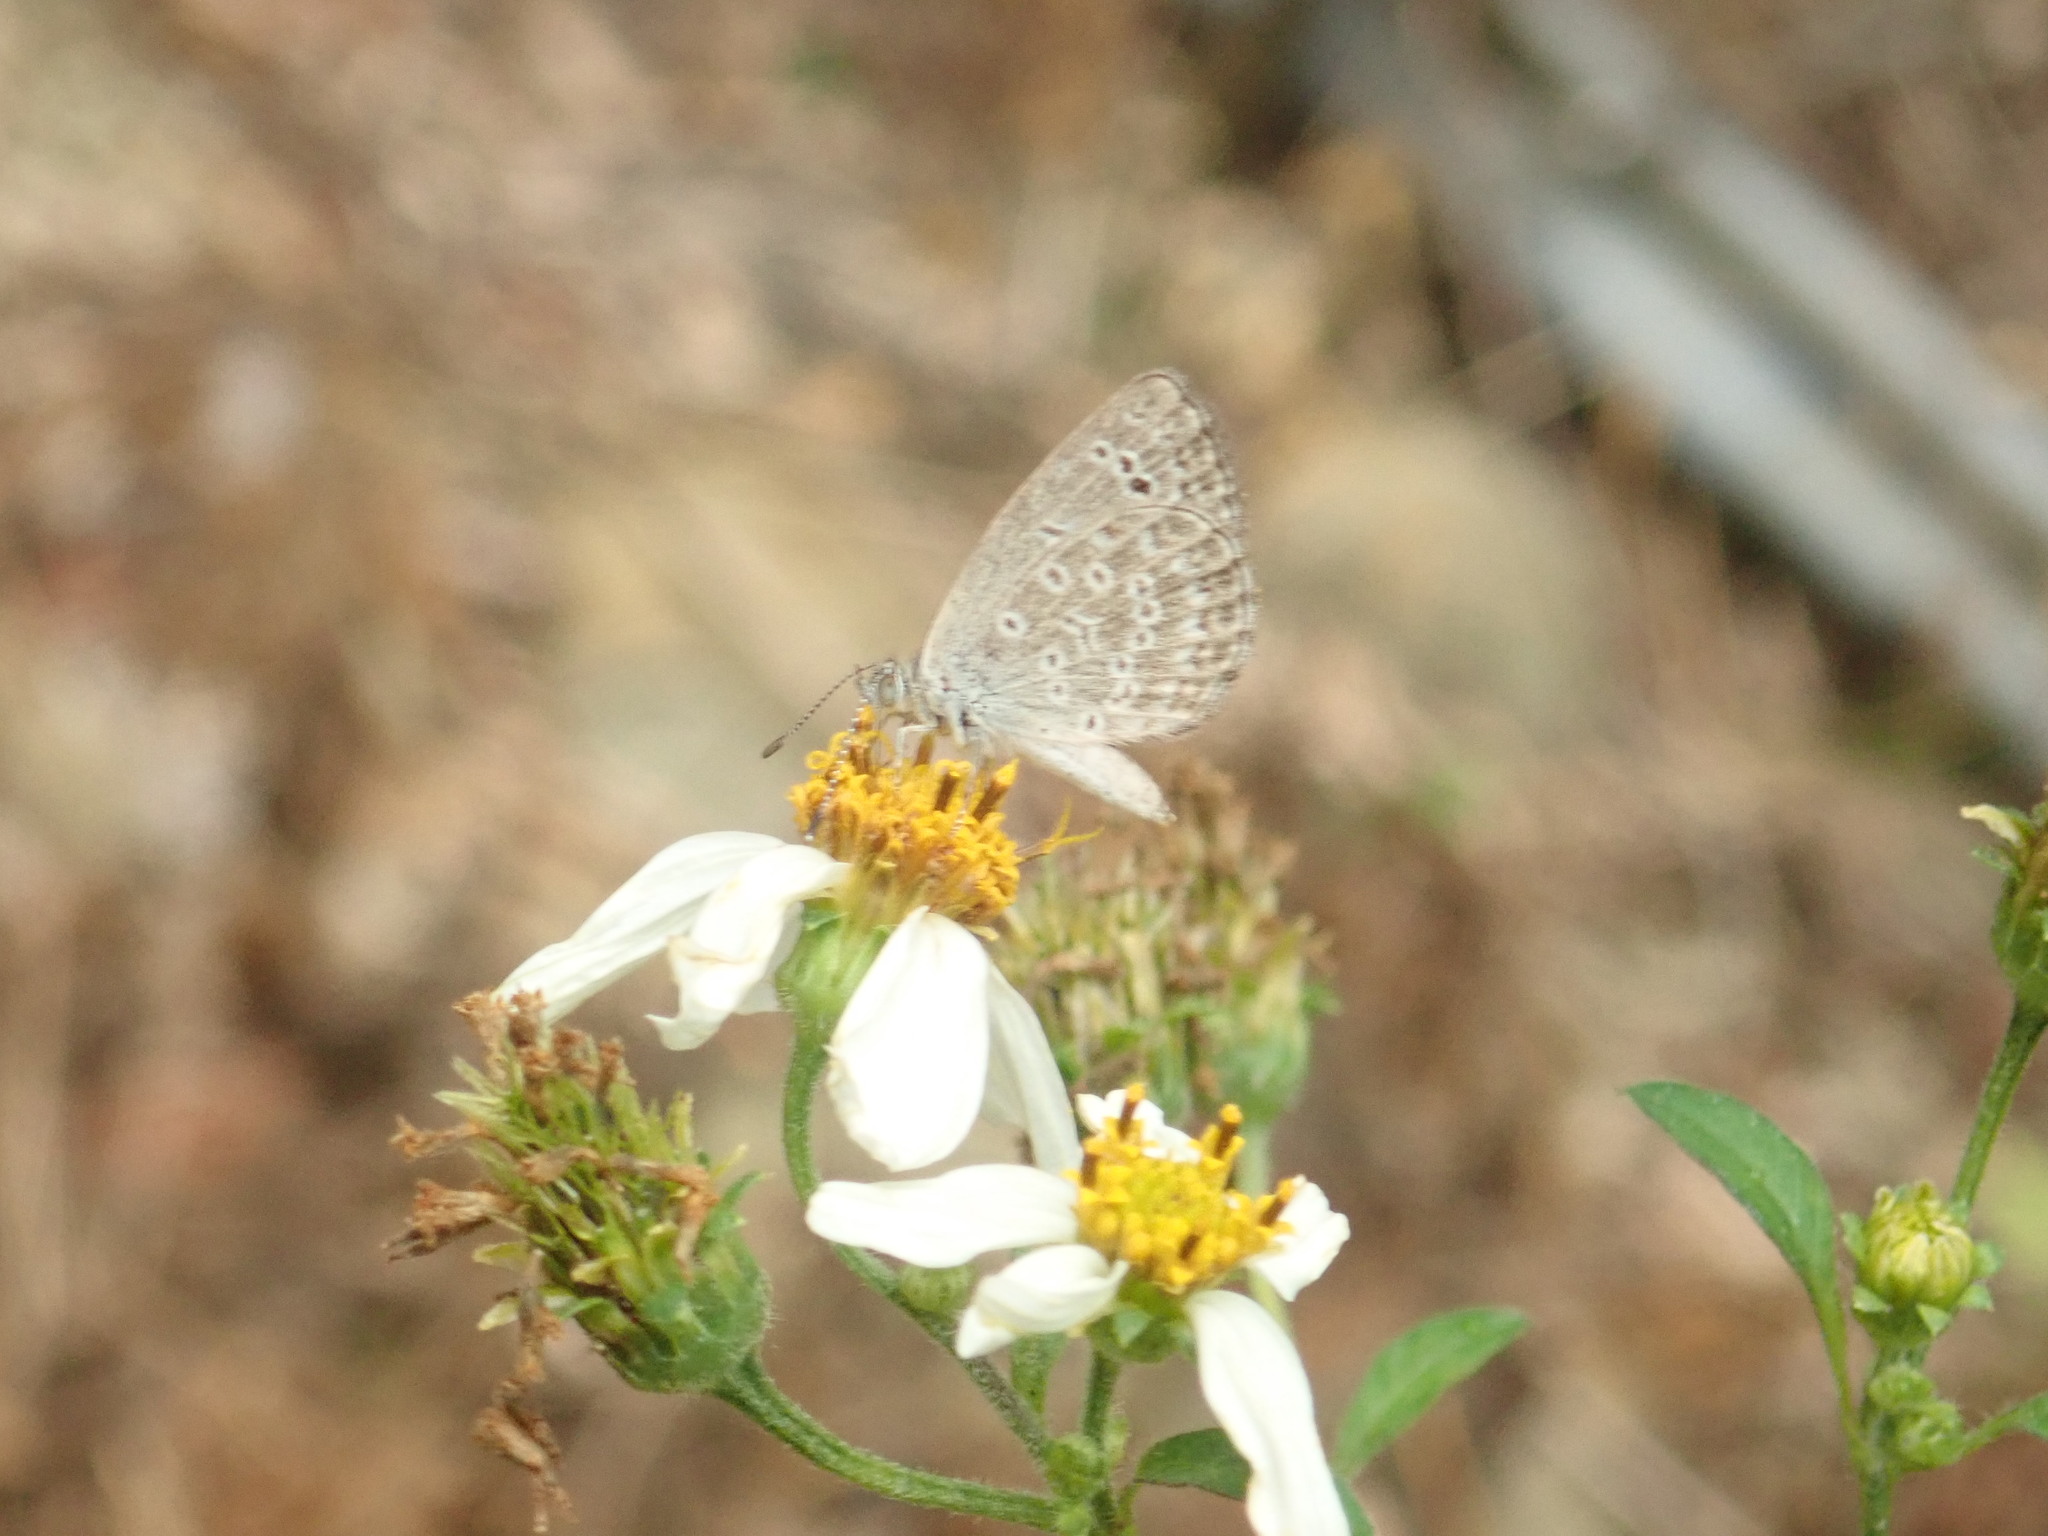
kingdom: Animalia
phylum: Arthropoda
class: Insecta
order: Lepidoptera
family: Lycaenidae
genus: Pseudozizeeria
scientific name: Pseudozizeeria maha
